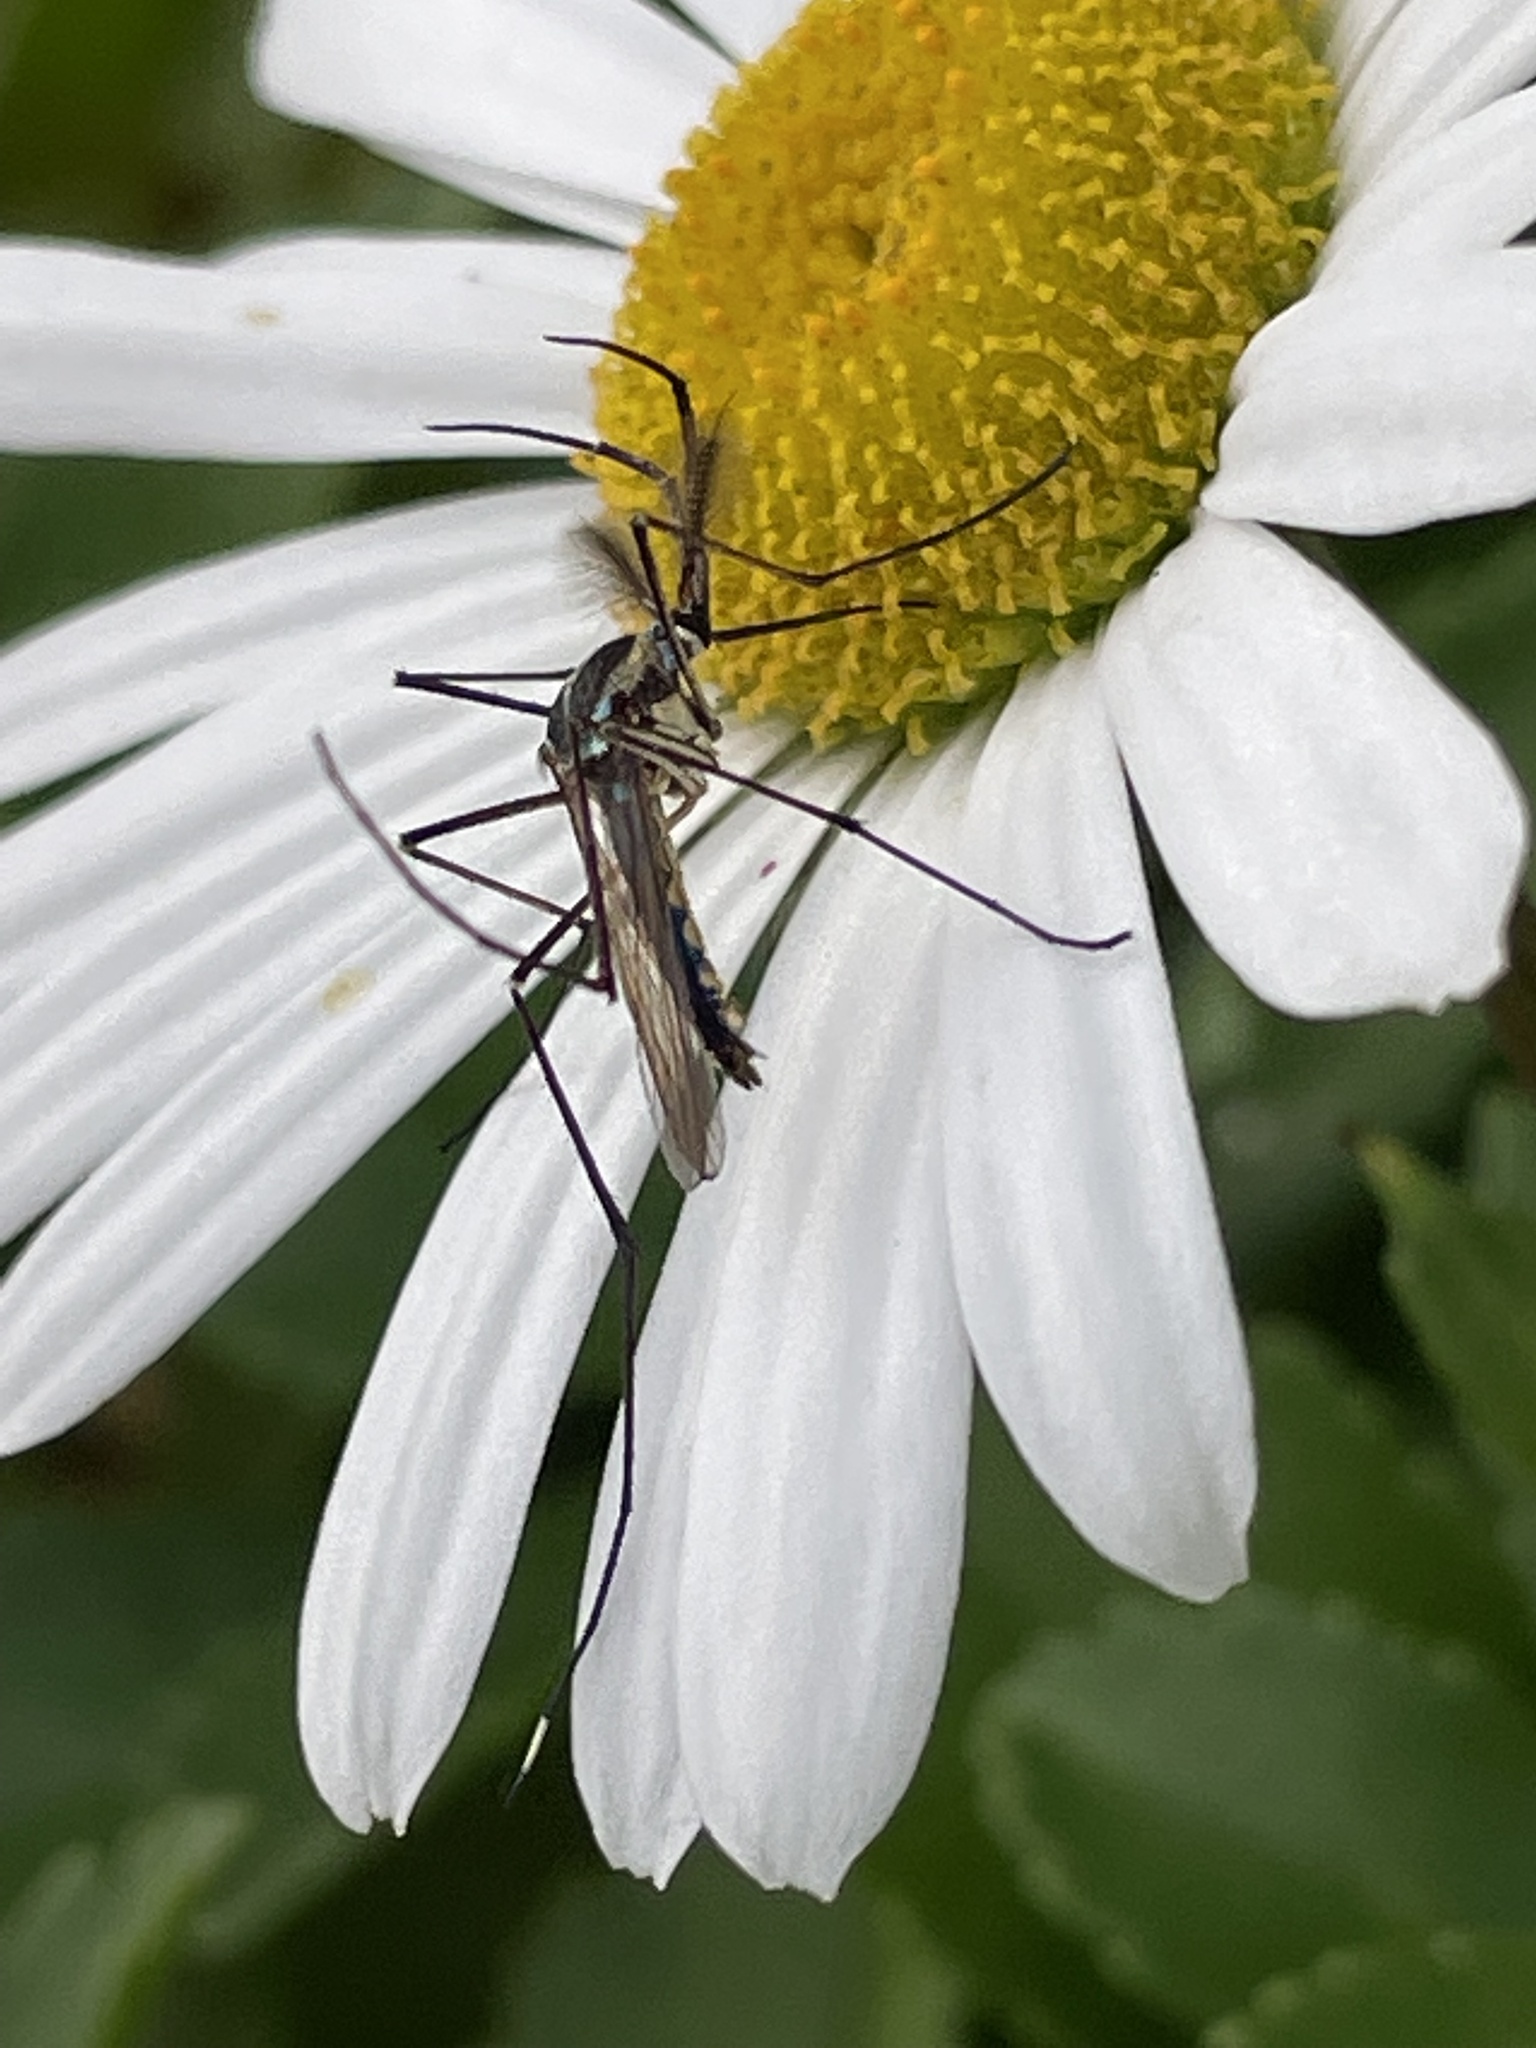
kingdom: Animalia
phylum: Arthropoda
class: Insecta
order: Diptera
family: Culicidae
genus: Toxorhynchites
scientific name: Toxorhynchites rutilus
